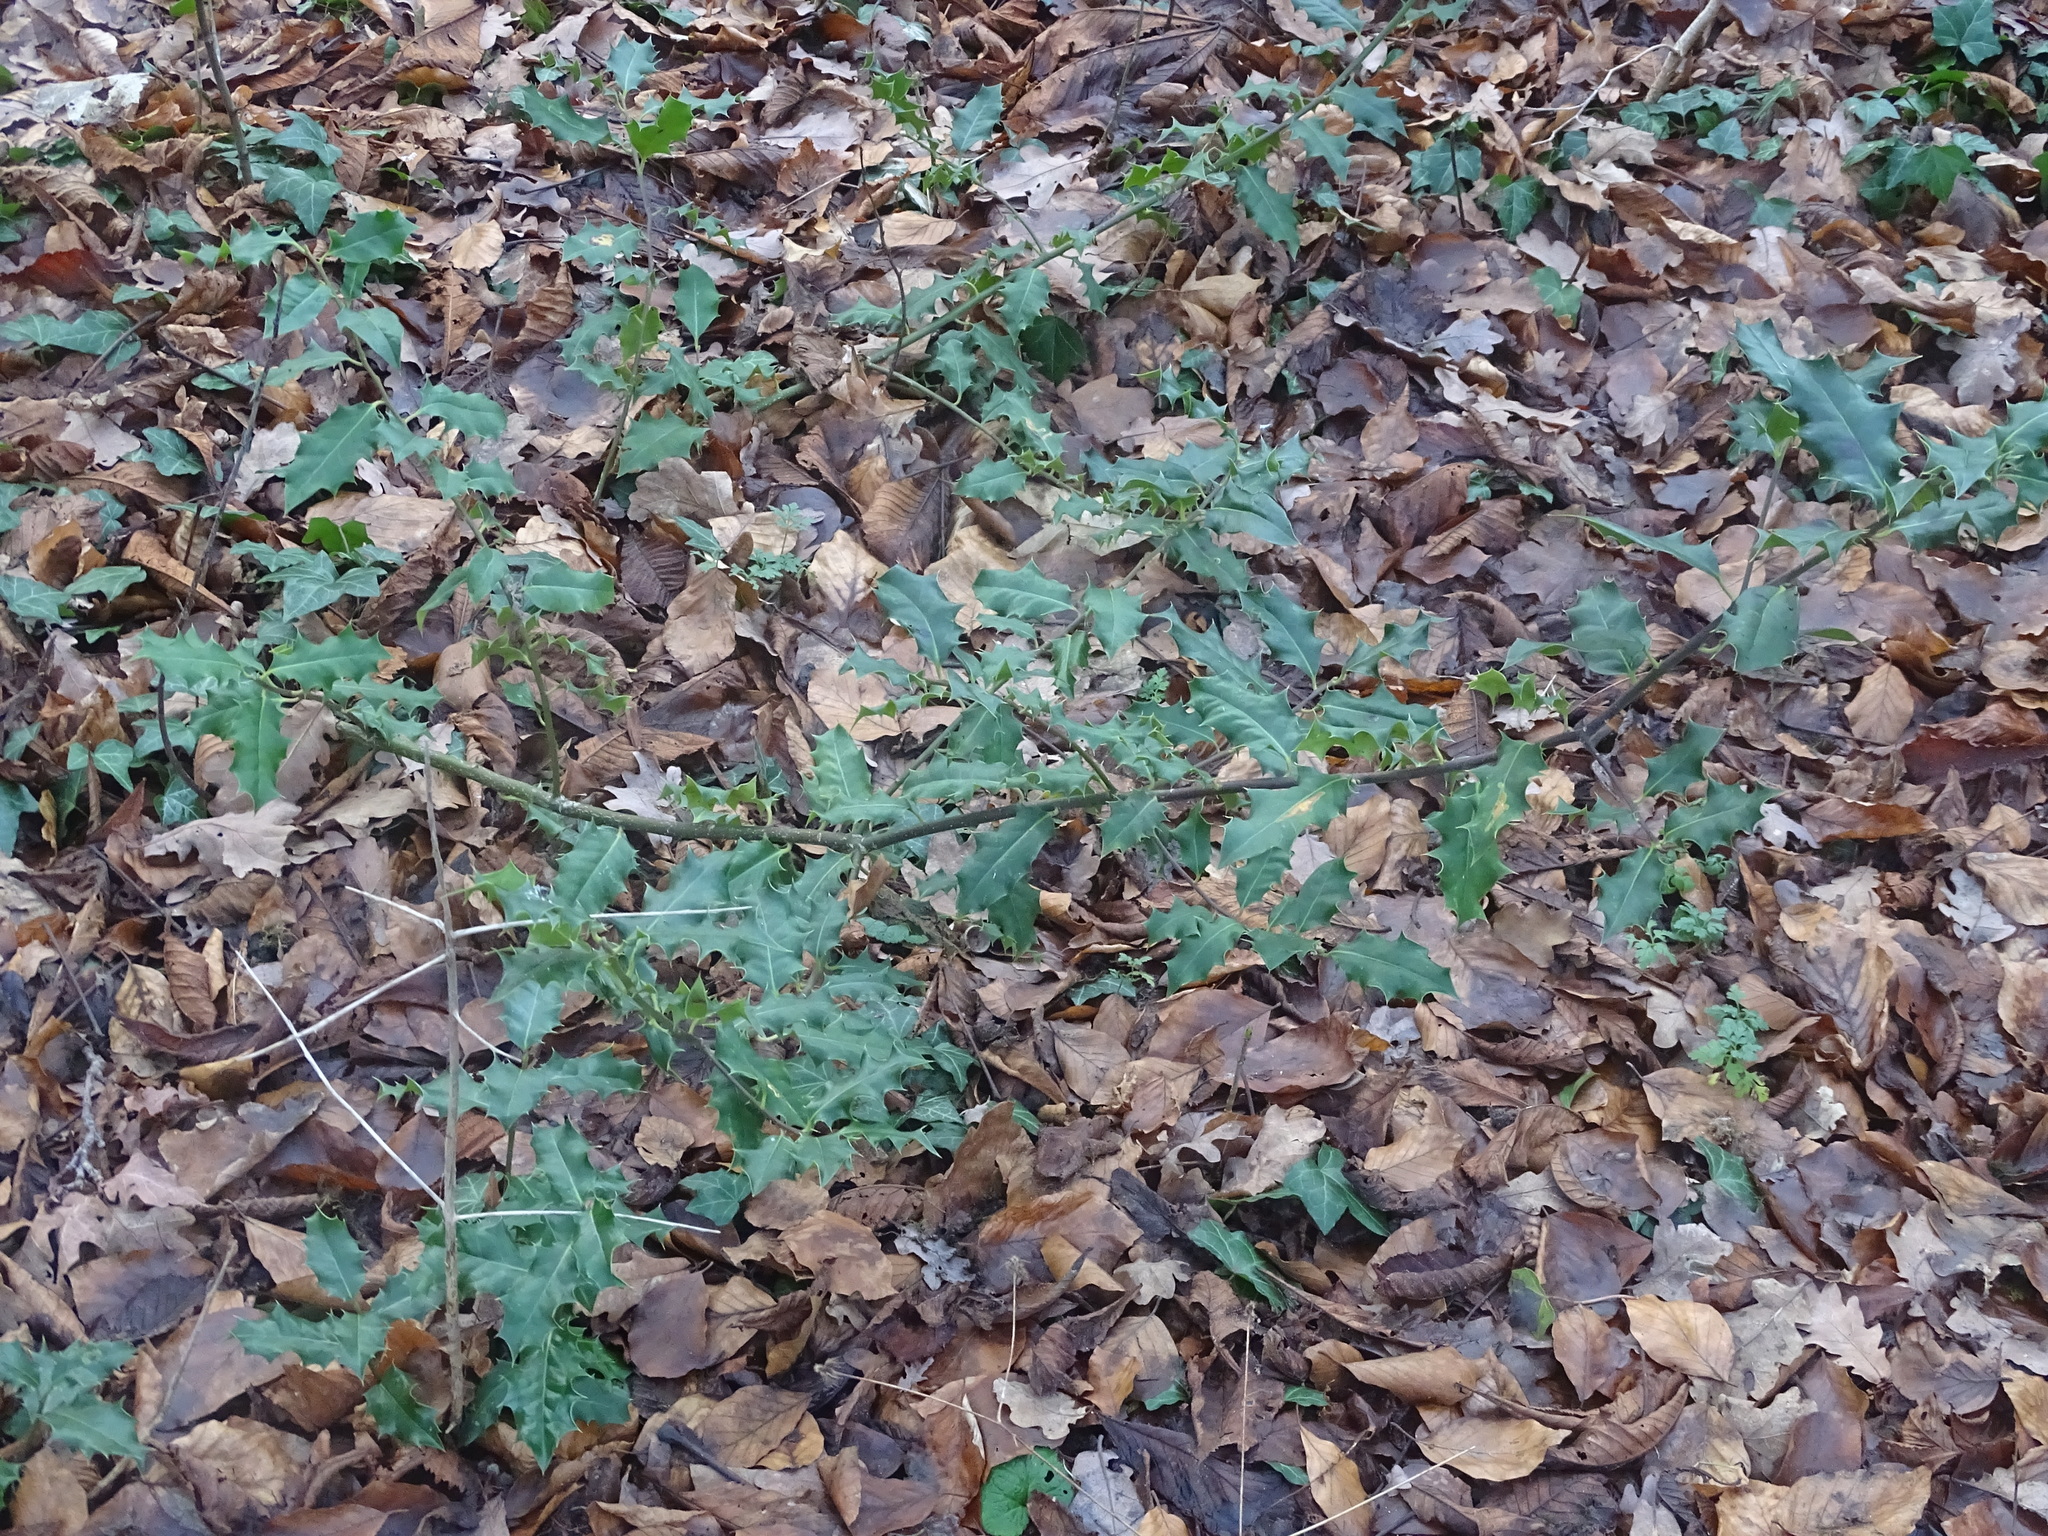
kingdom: Plantae
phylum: Tracheophyta
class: Magnoliopsida
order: Aquifoliales
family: Aquifoliaceae
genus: Ilex
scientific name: Ilex aquifolium
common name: English holly
